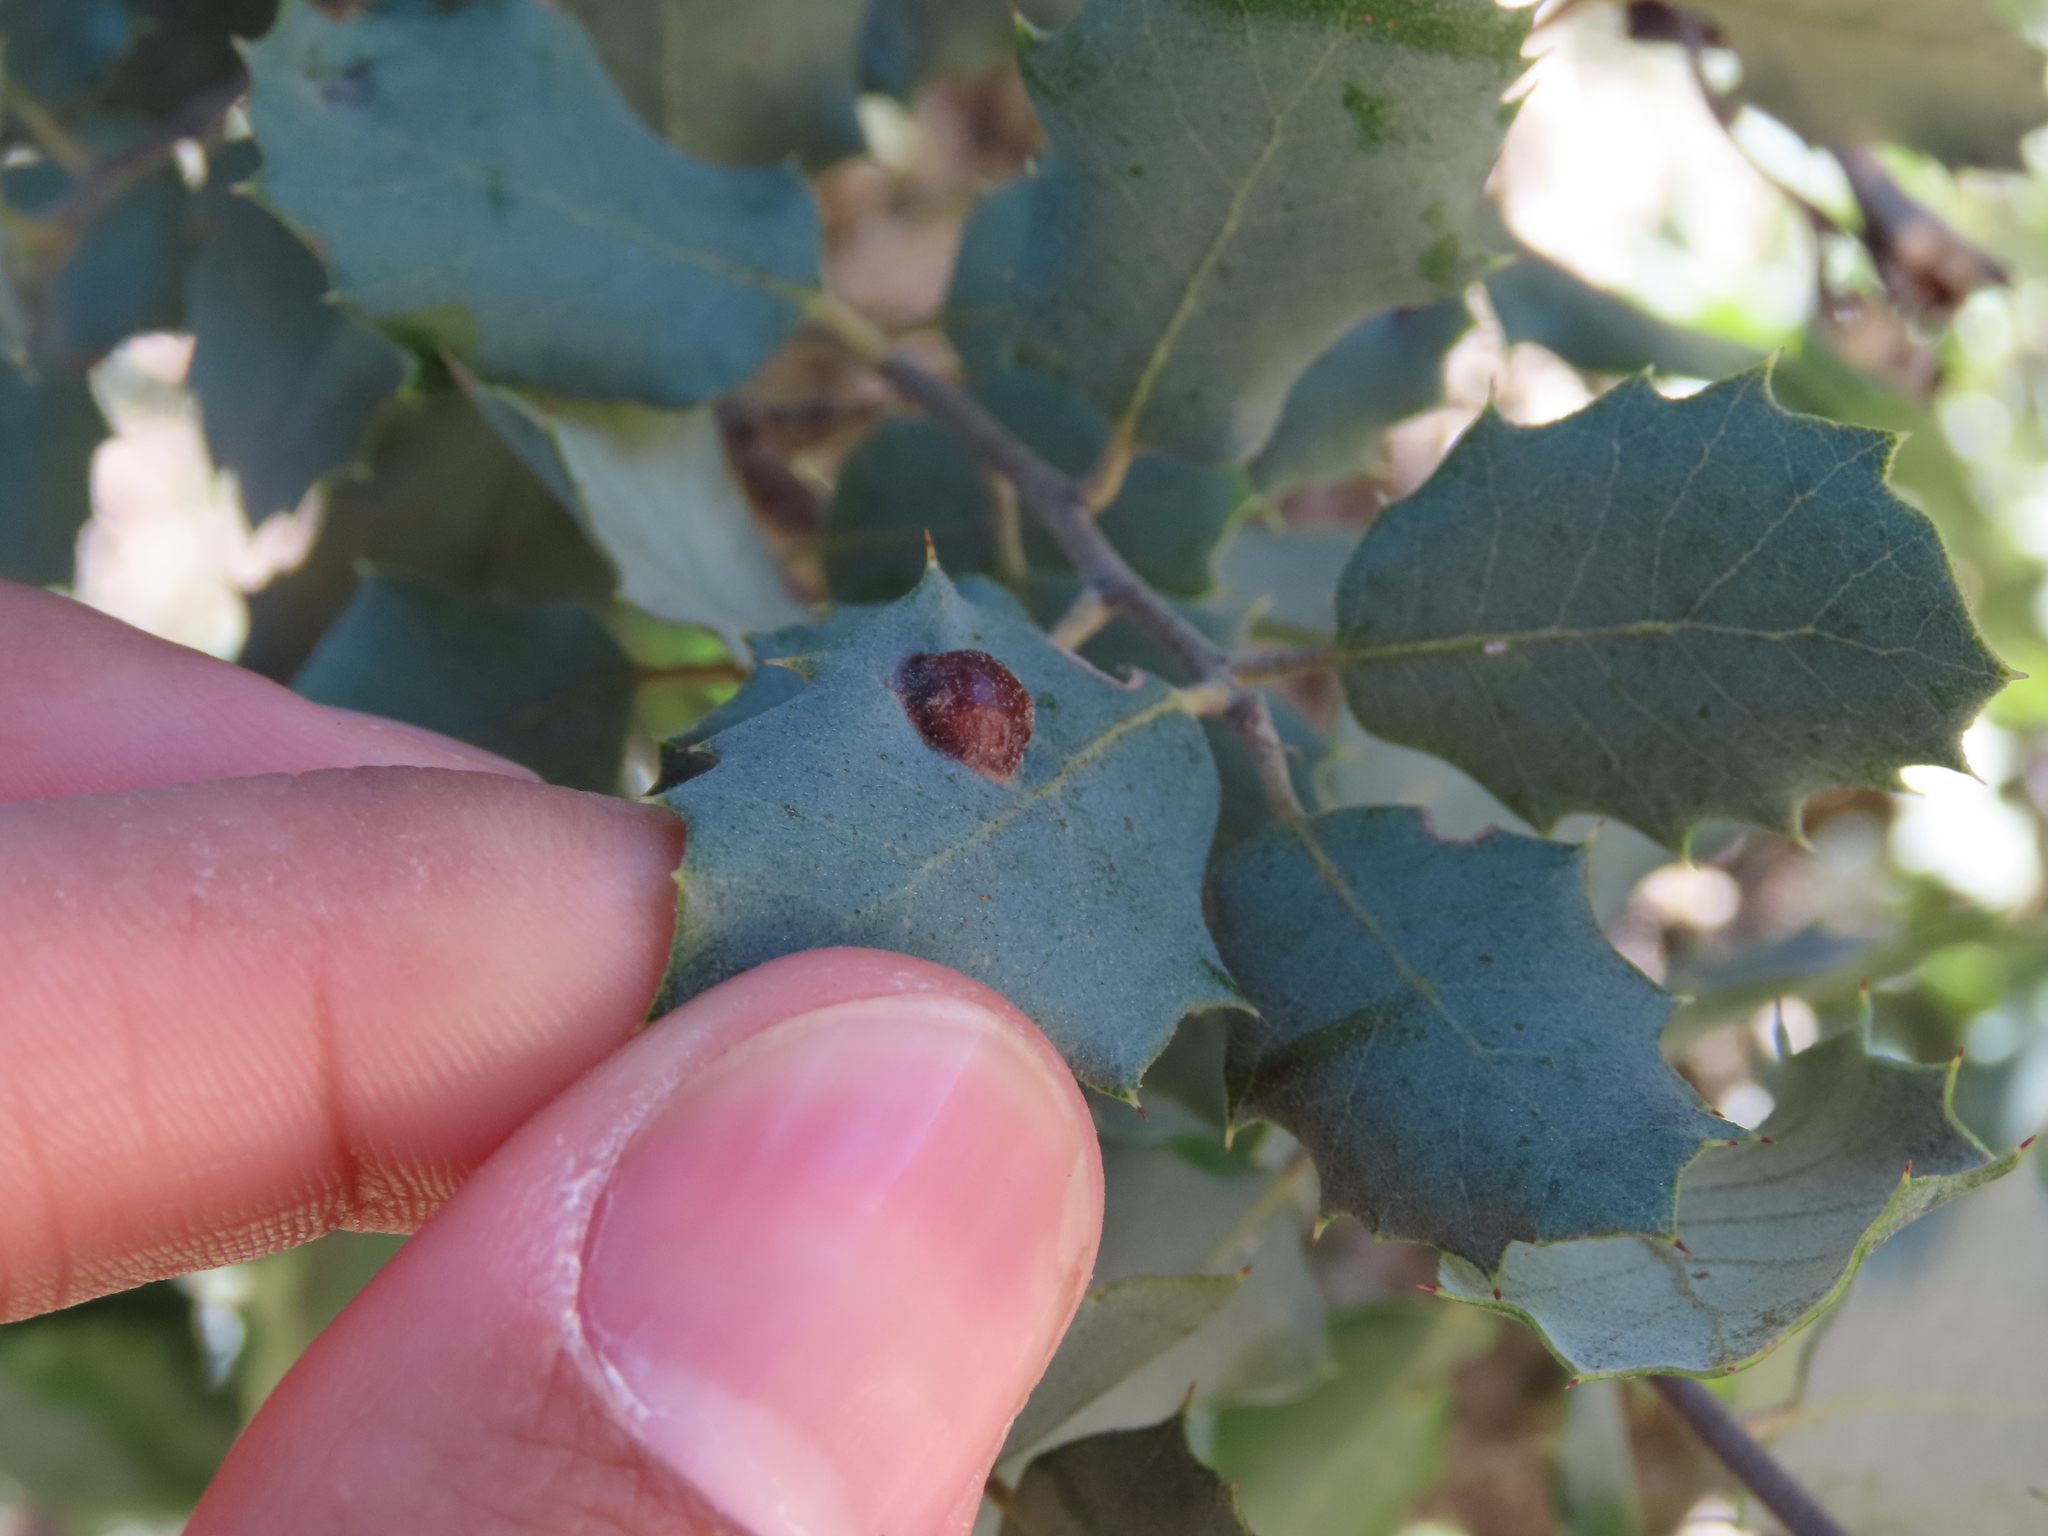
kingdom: Animalia
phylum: Arthropoda
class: Insecta
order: Hymenoptera
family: Cynipidae
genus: Plagiotrochus
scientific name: Plagiotrochus australis
